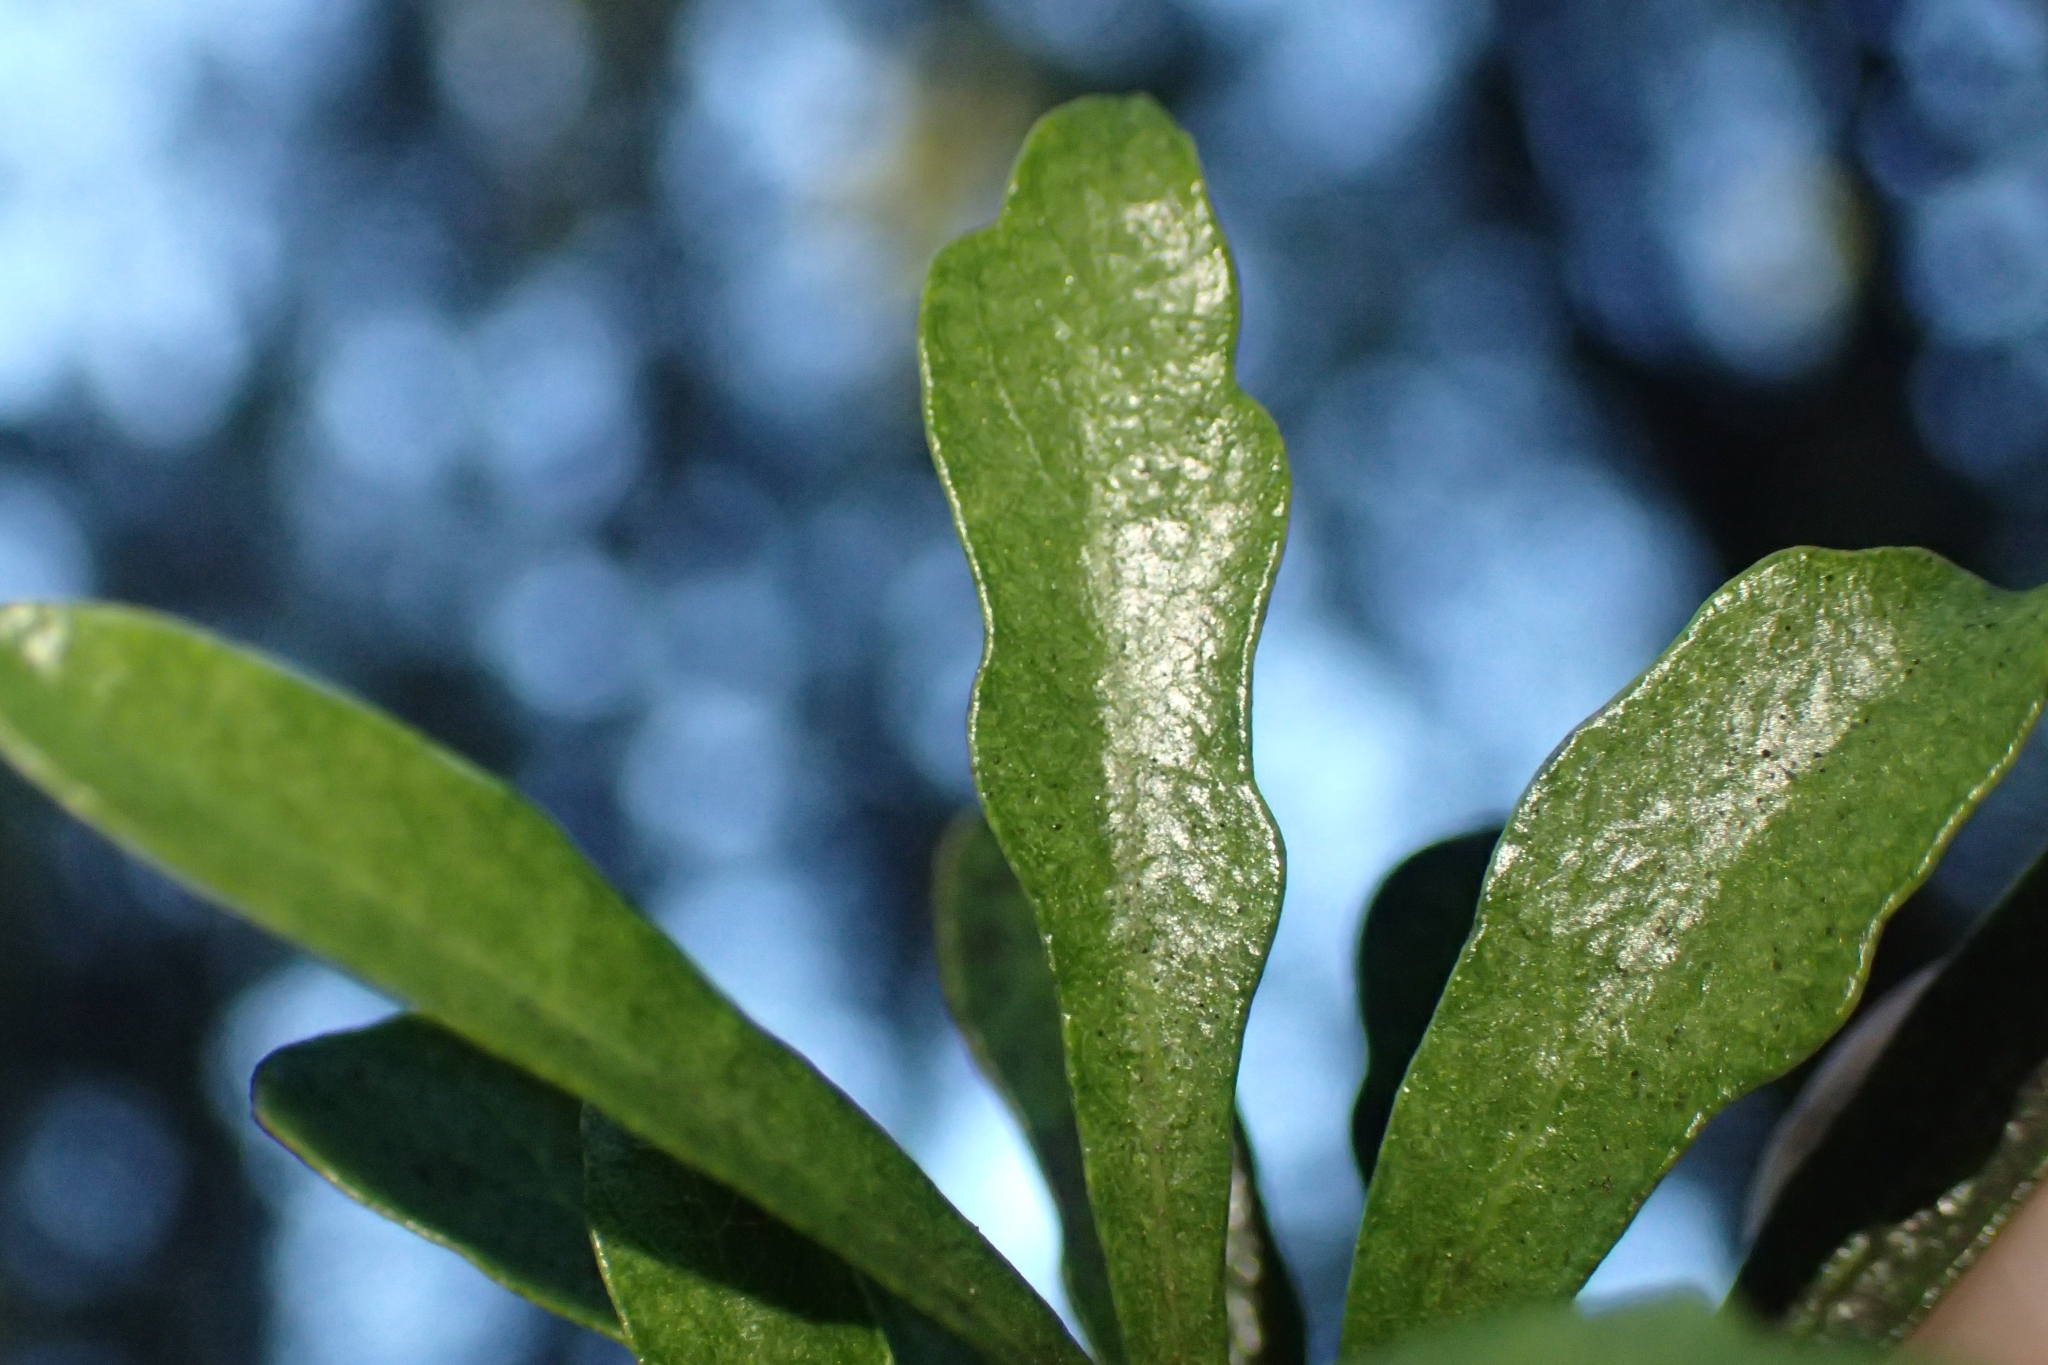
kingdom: Plantae
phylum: Tracheophyta
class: Magnoliopsida
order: Apiales
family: Pittosporaceae
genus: Pittosporum
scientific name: Pittosporum turneri
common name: Tent pole tree
